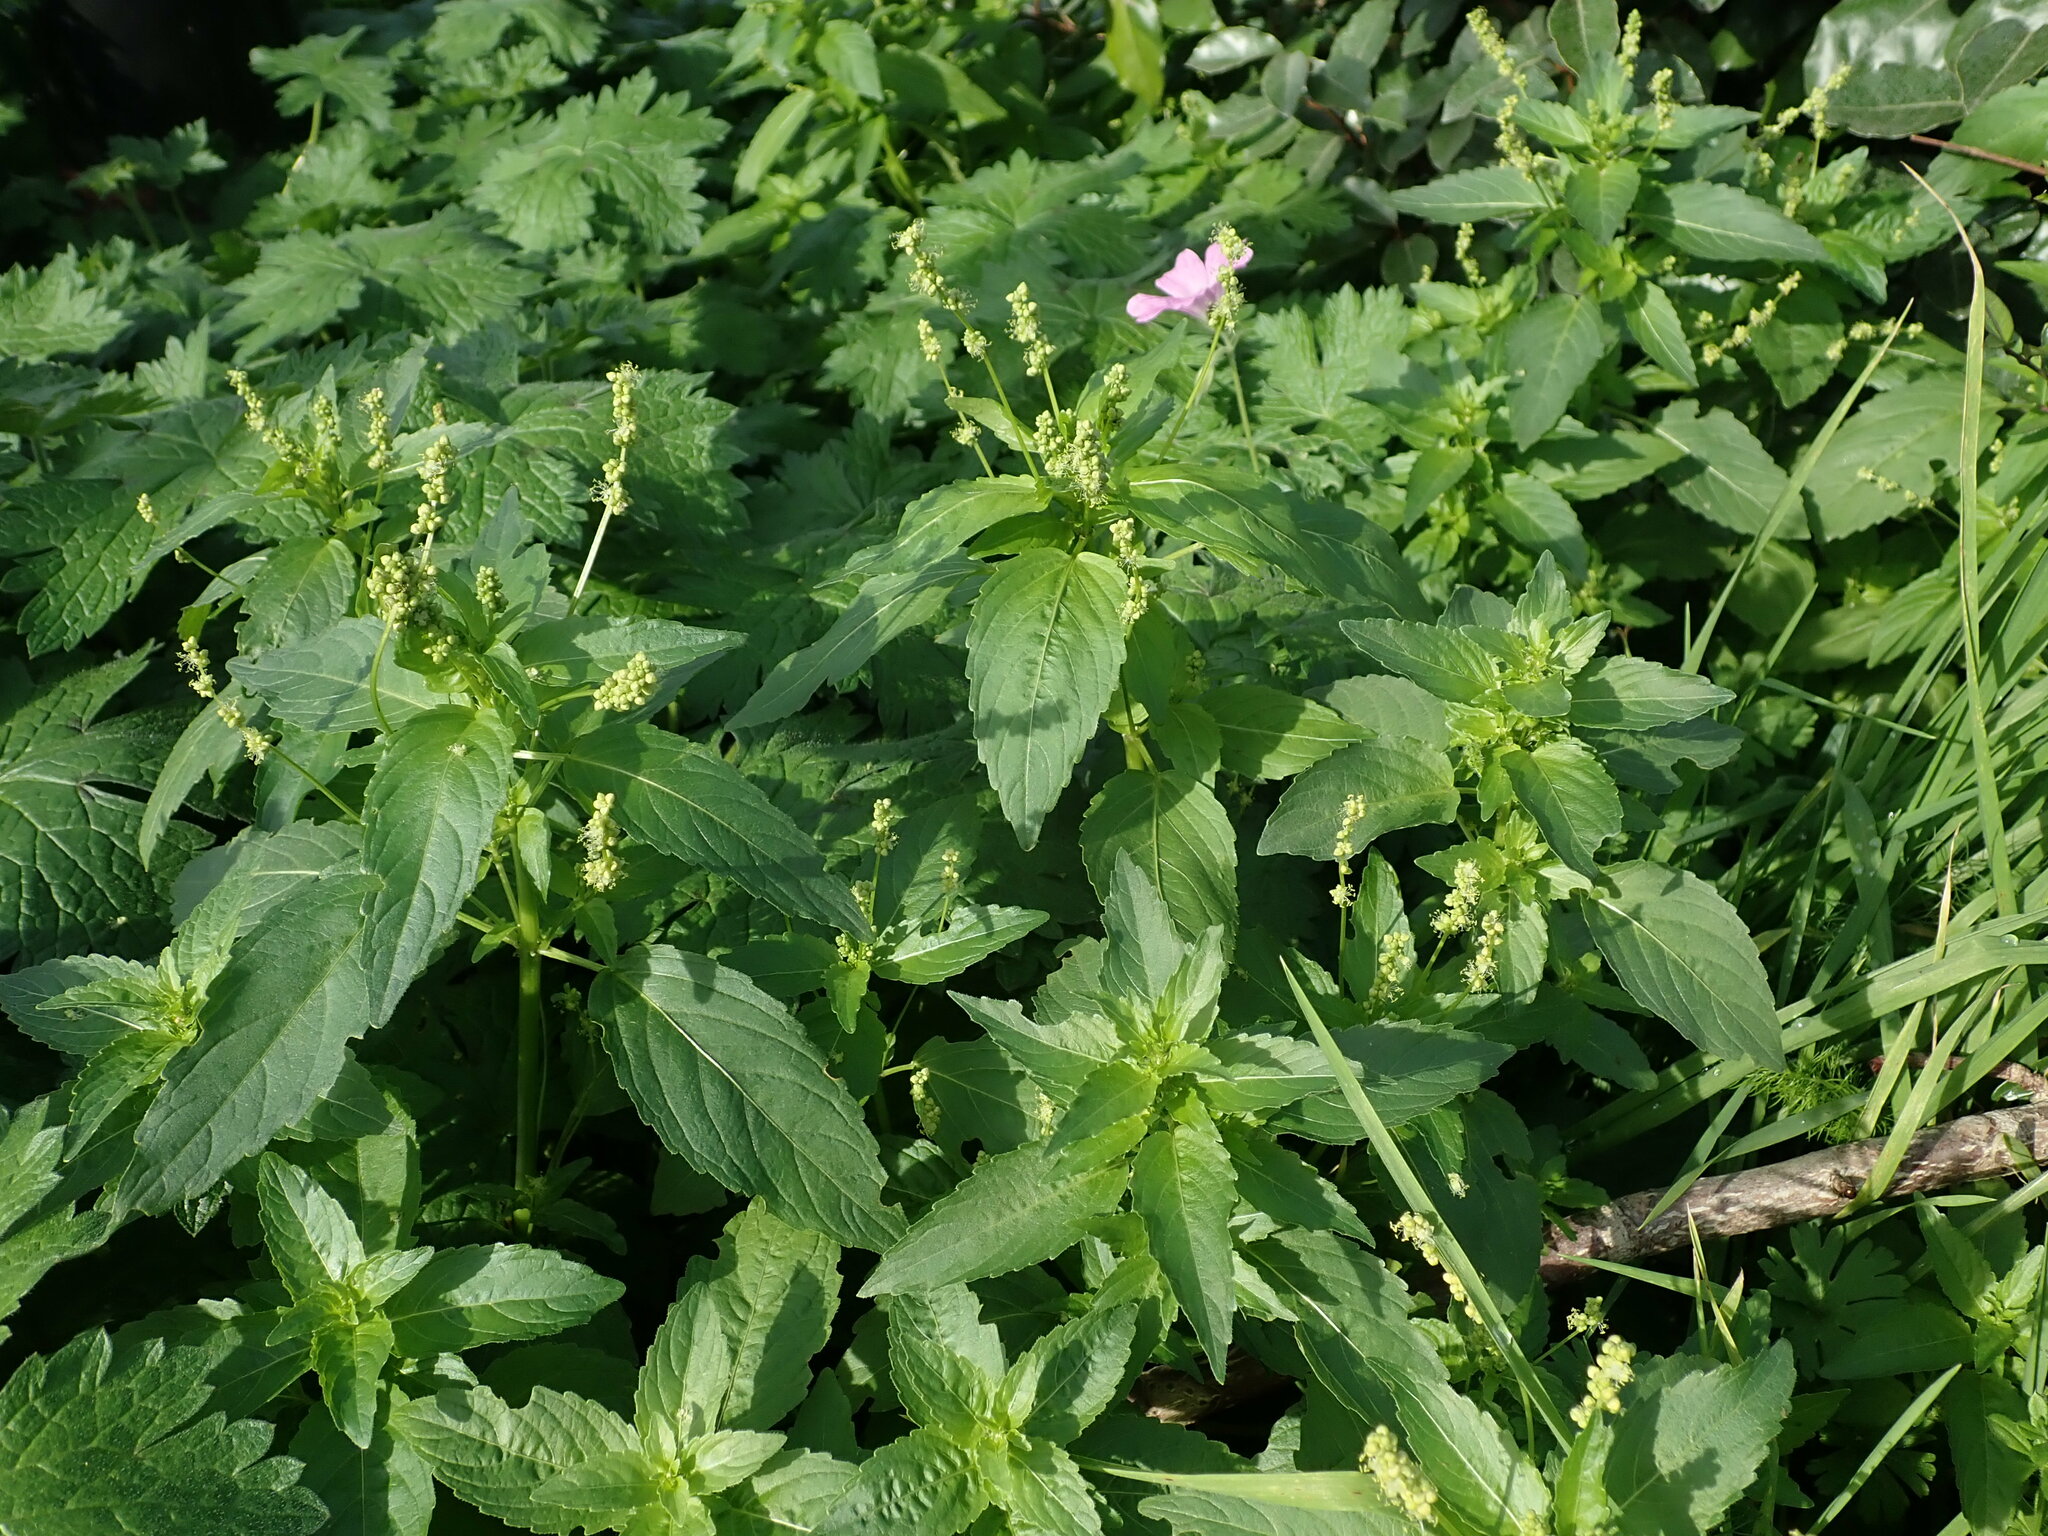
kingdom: Plantae
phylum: Tracheophyta
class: Magnoliopsida
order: Malpighiales
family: Euphorbiaceae
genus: Mercurialis
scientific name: Mercurialis annua
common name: Annual mercury
